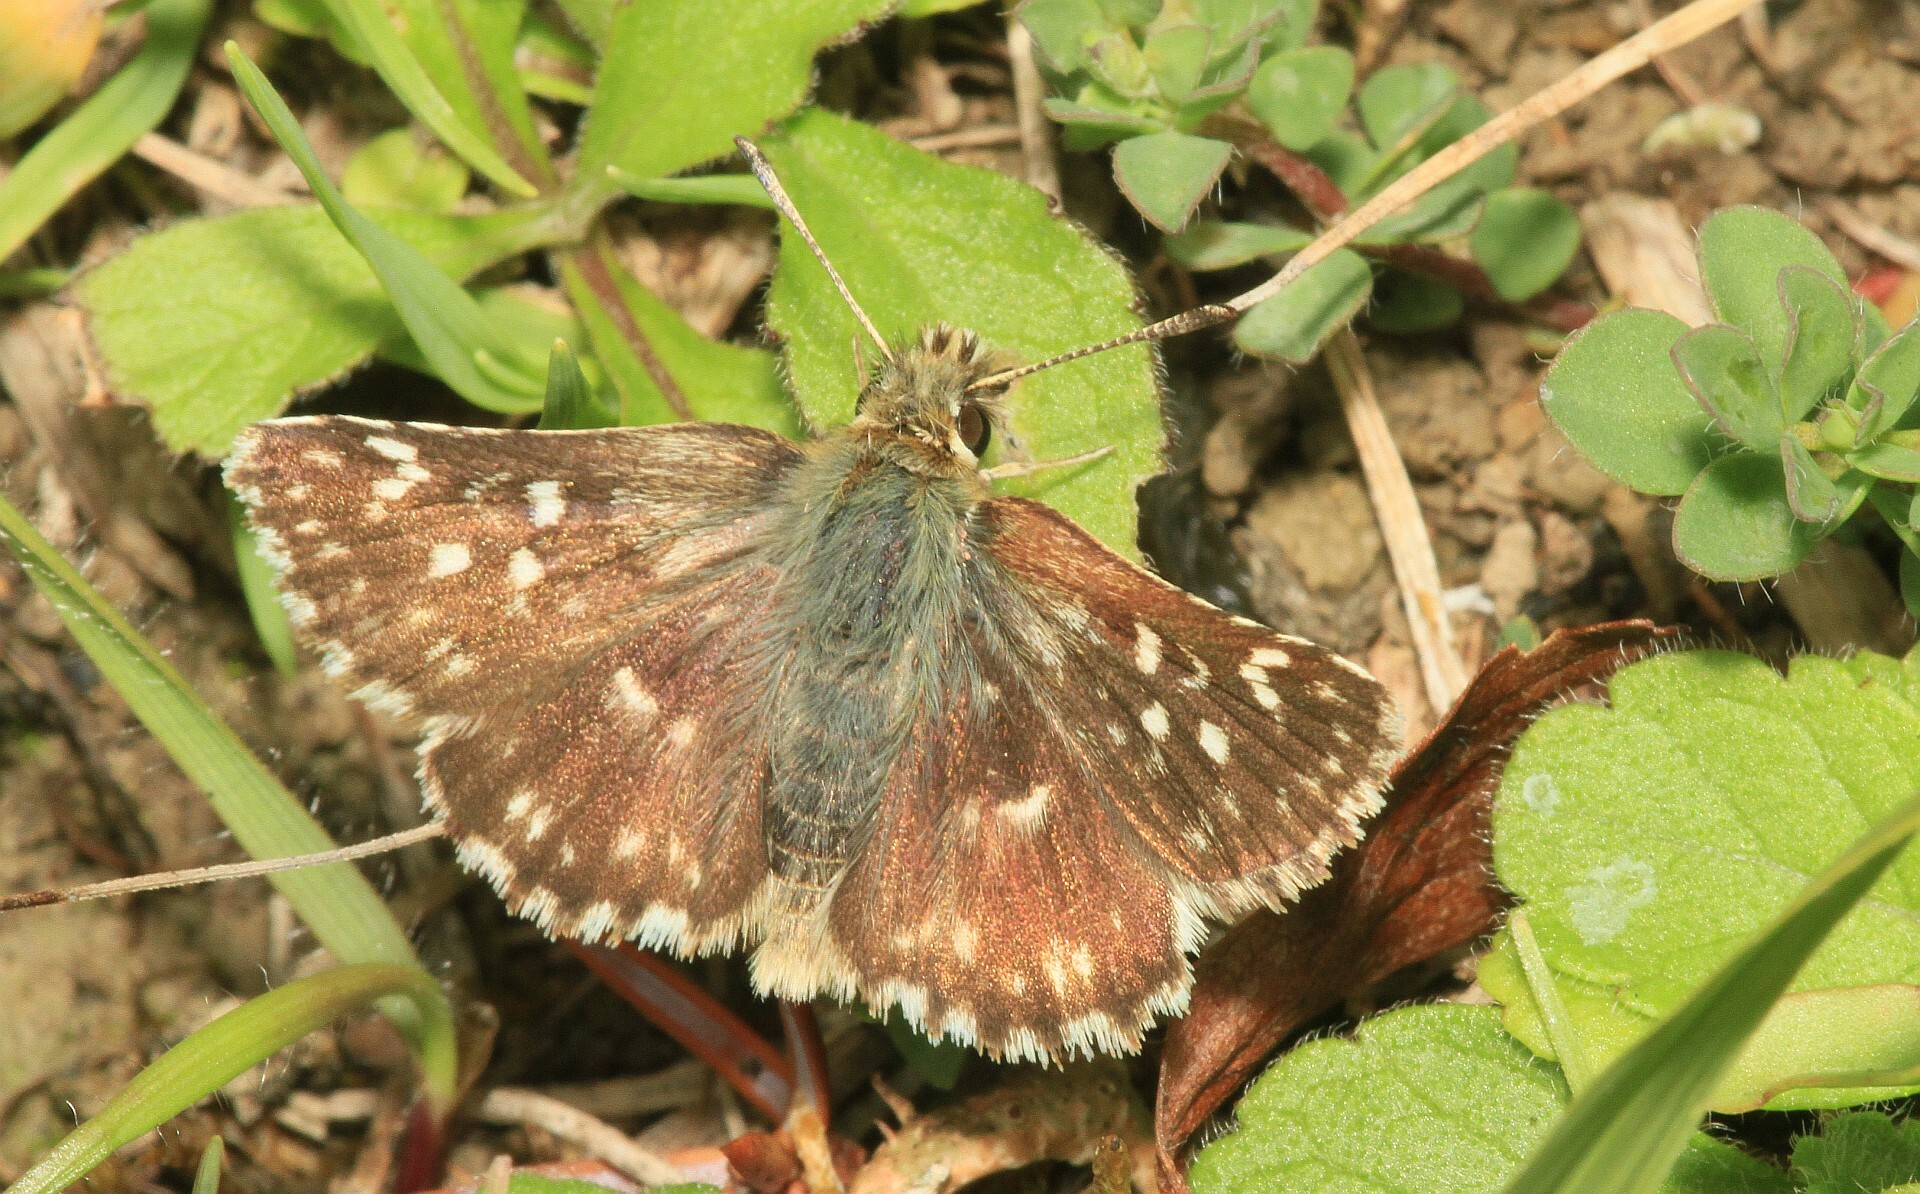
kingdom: Animalia
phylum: Arthropoda
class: Insecta
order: Lepidoptera
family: Hesperiidae
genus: Spialia
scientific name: Spialia sertorius
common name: Red underwing skipper
